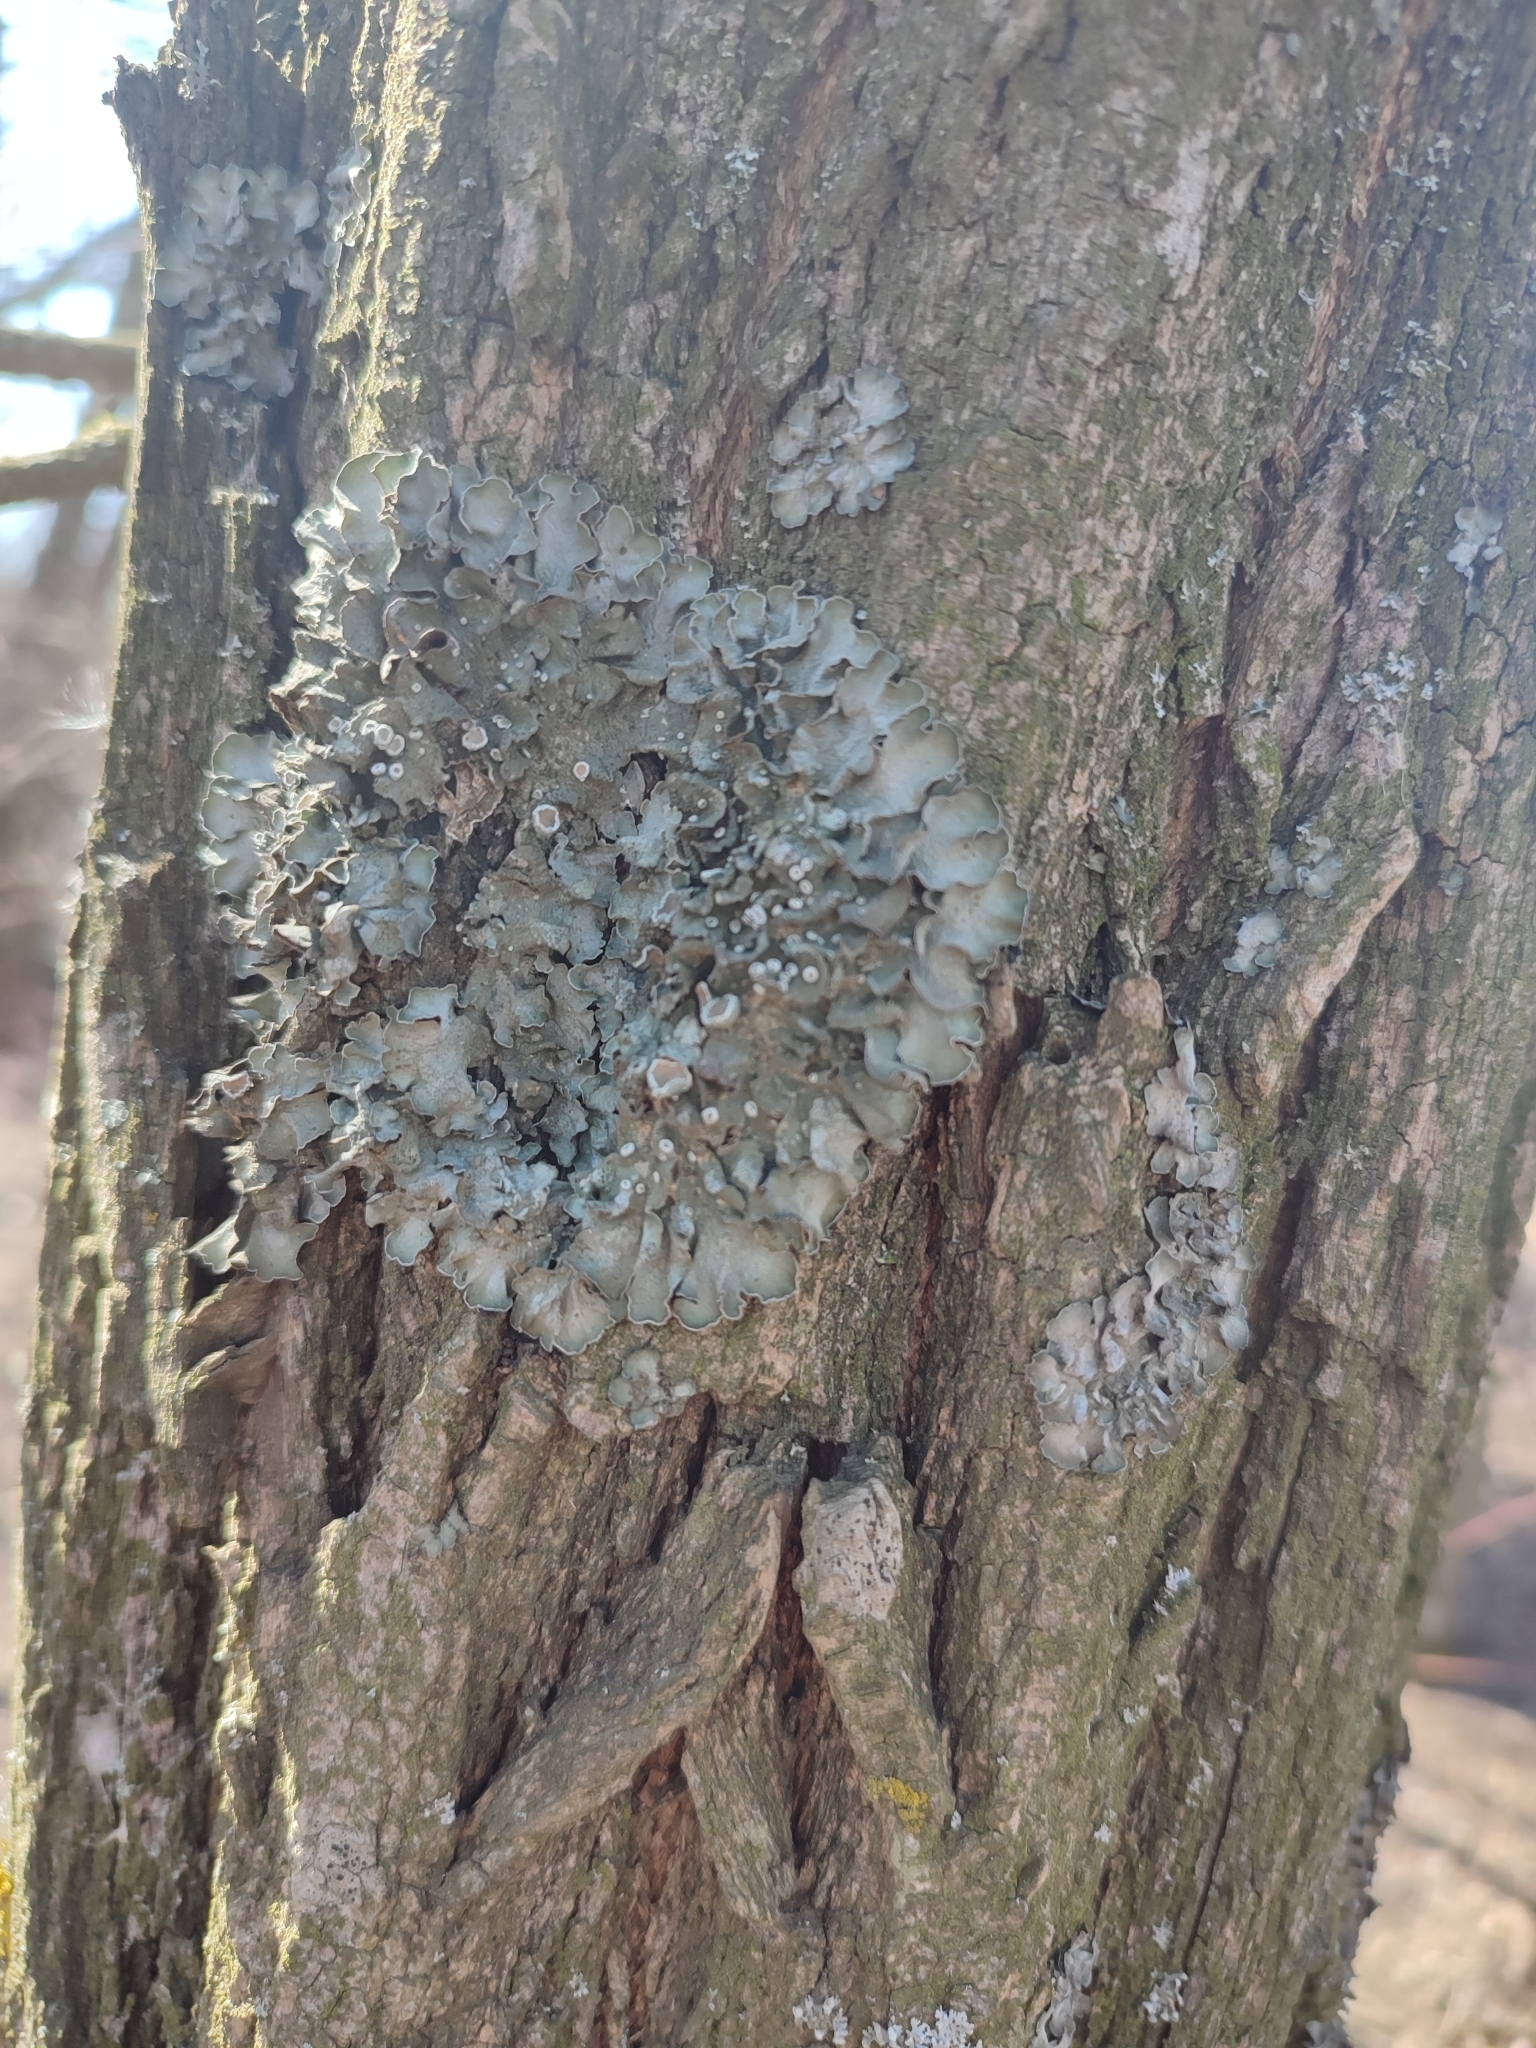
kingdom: Fungi
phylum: Ascomycota
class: Lecanoromycetes
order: Lecanorales
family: Parmeliaceae
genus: Pleurosticta
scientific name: Pleurosticta acetabulum
